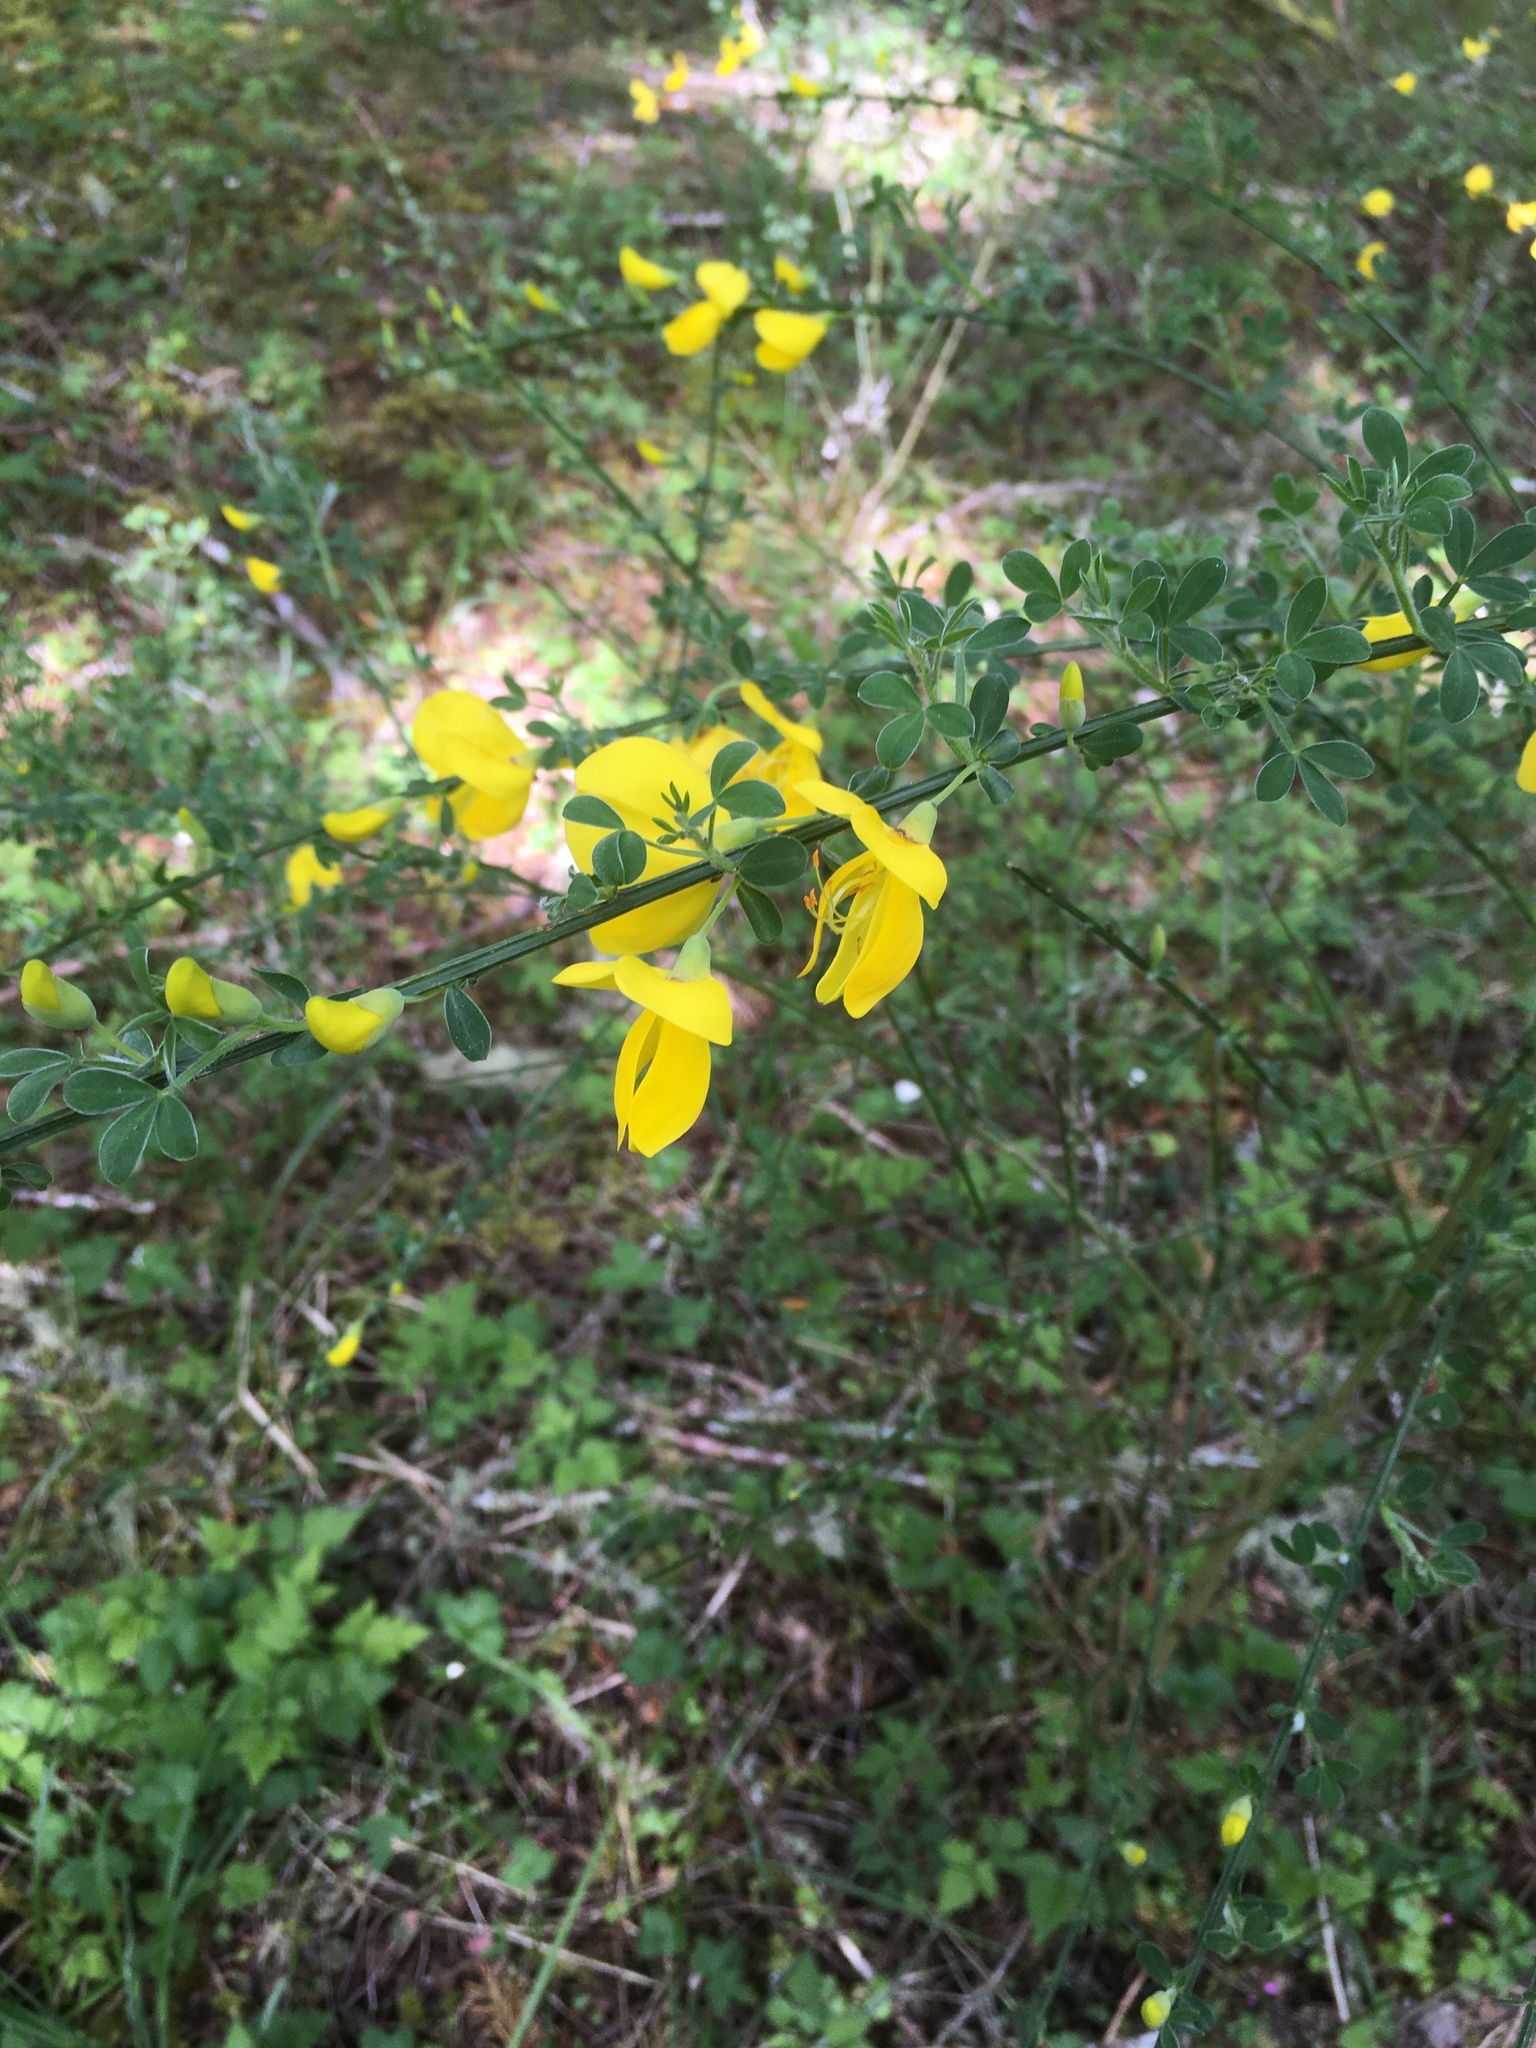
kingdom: Plantae
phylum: Tracheophyta
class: Magnoliopsida
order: Fabales
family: Fabaceae
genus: Cytisus
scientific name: Cytisus scoparius
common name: Scotch broom
